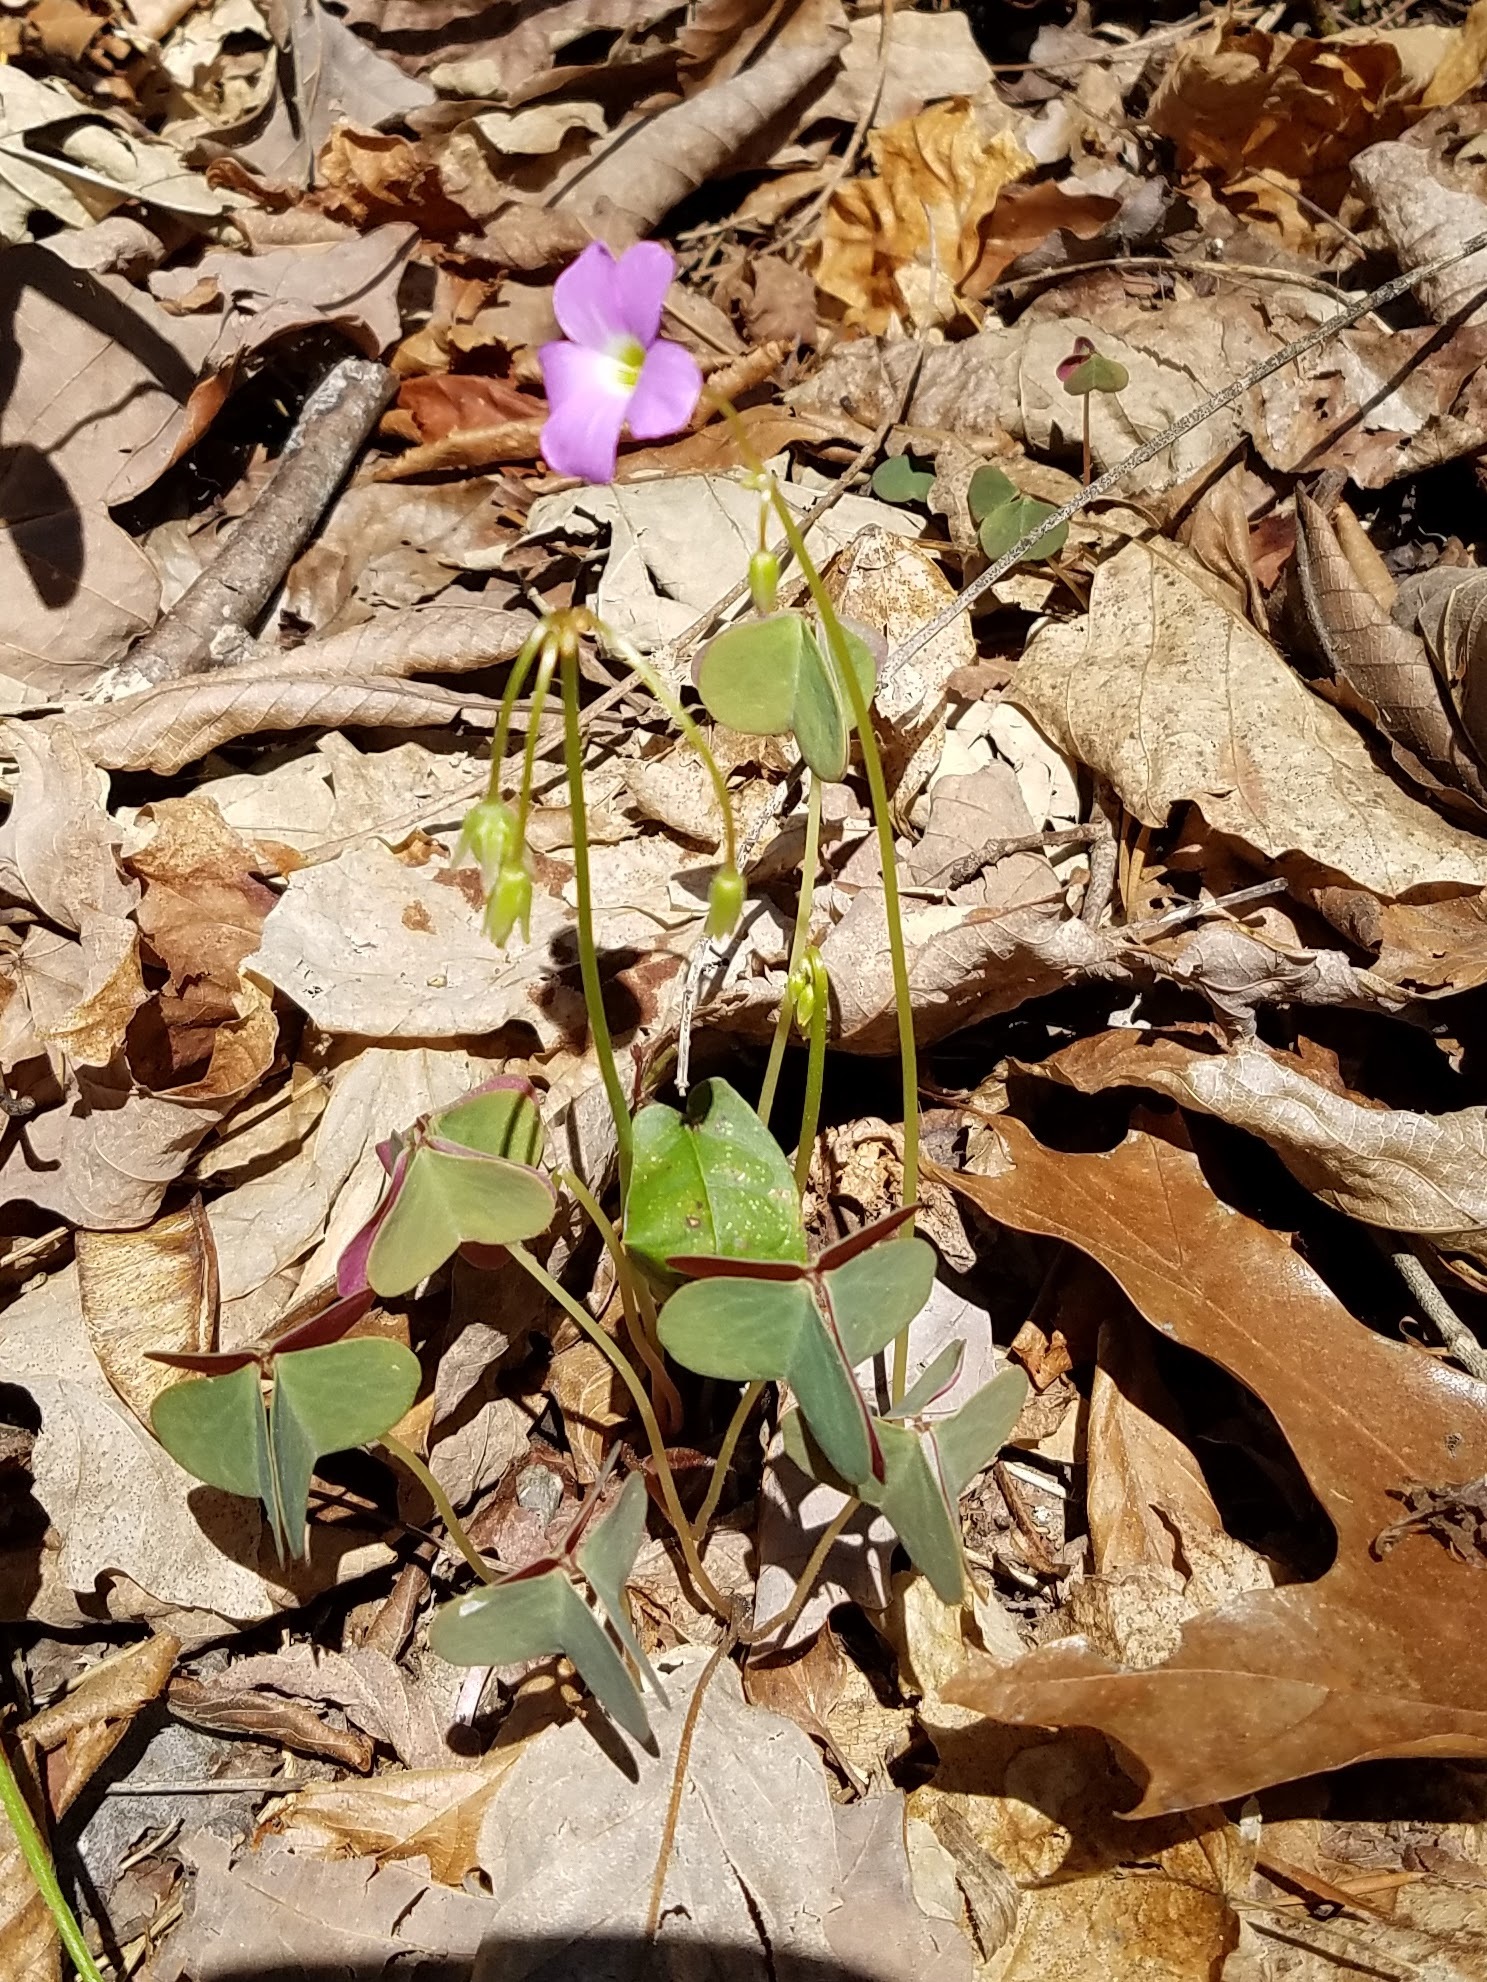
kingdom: Plantae
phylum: Tracheophyta
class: Magnoliopsida
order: Oxalidales
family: Oxalidaceae
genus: Oxalis
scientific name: Oxalis violacea
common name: Violet wood-sorrel
